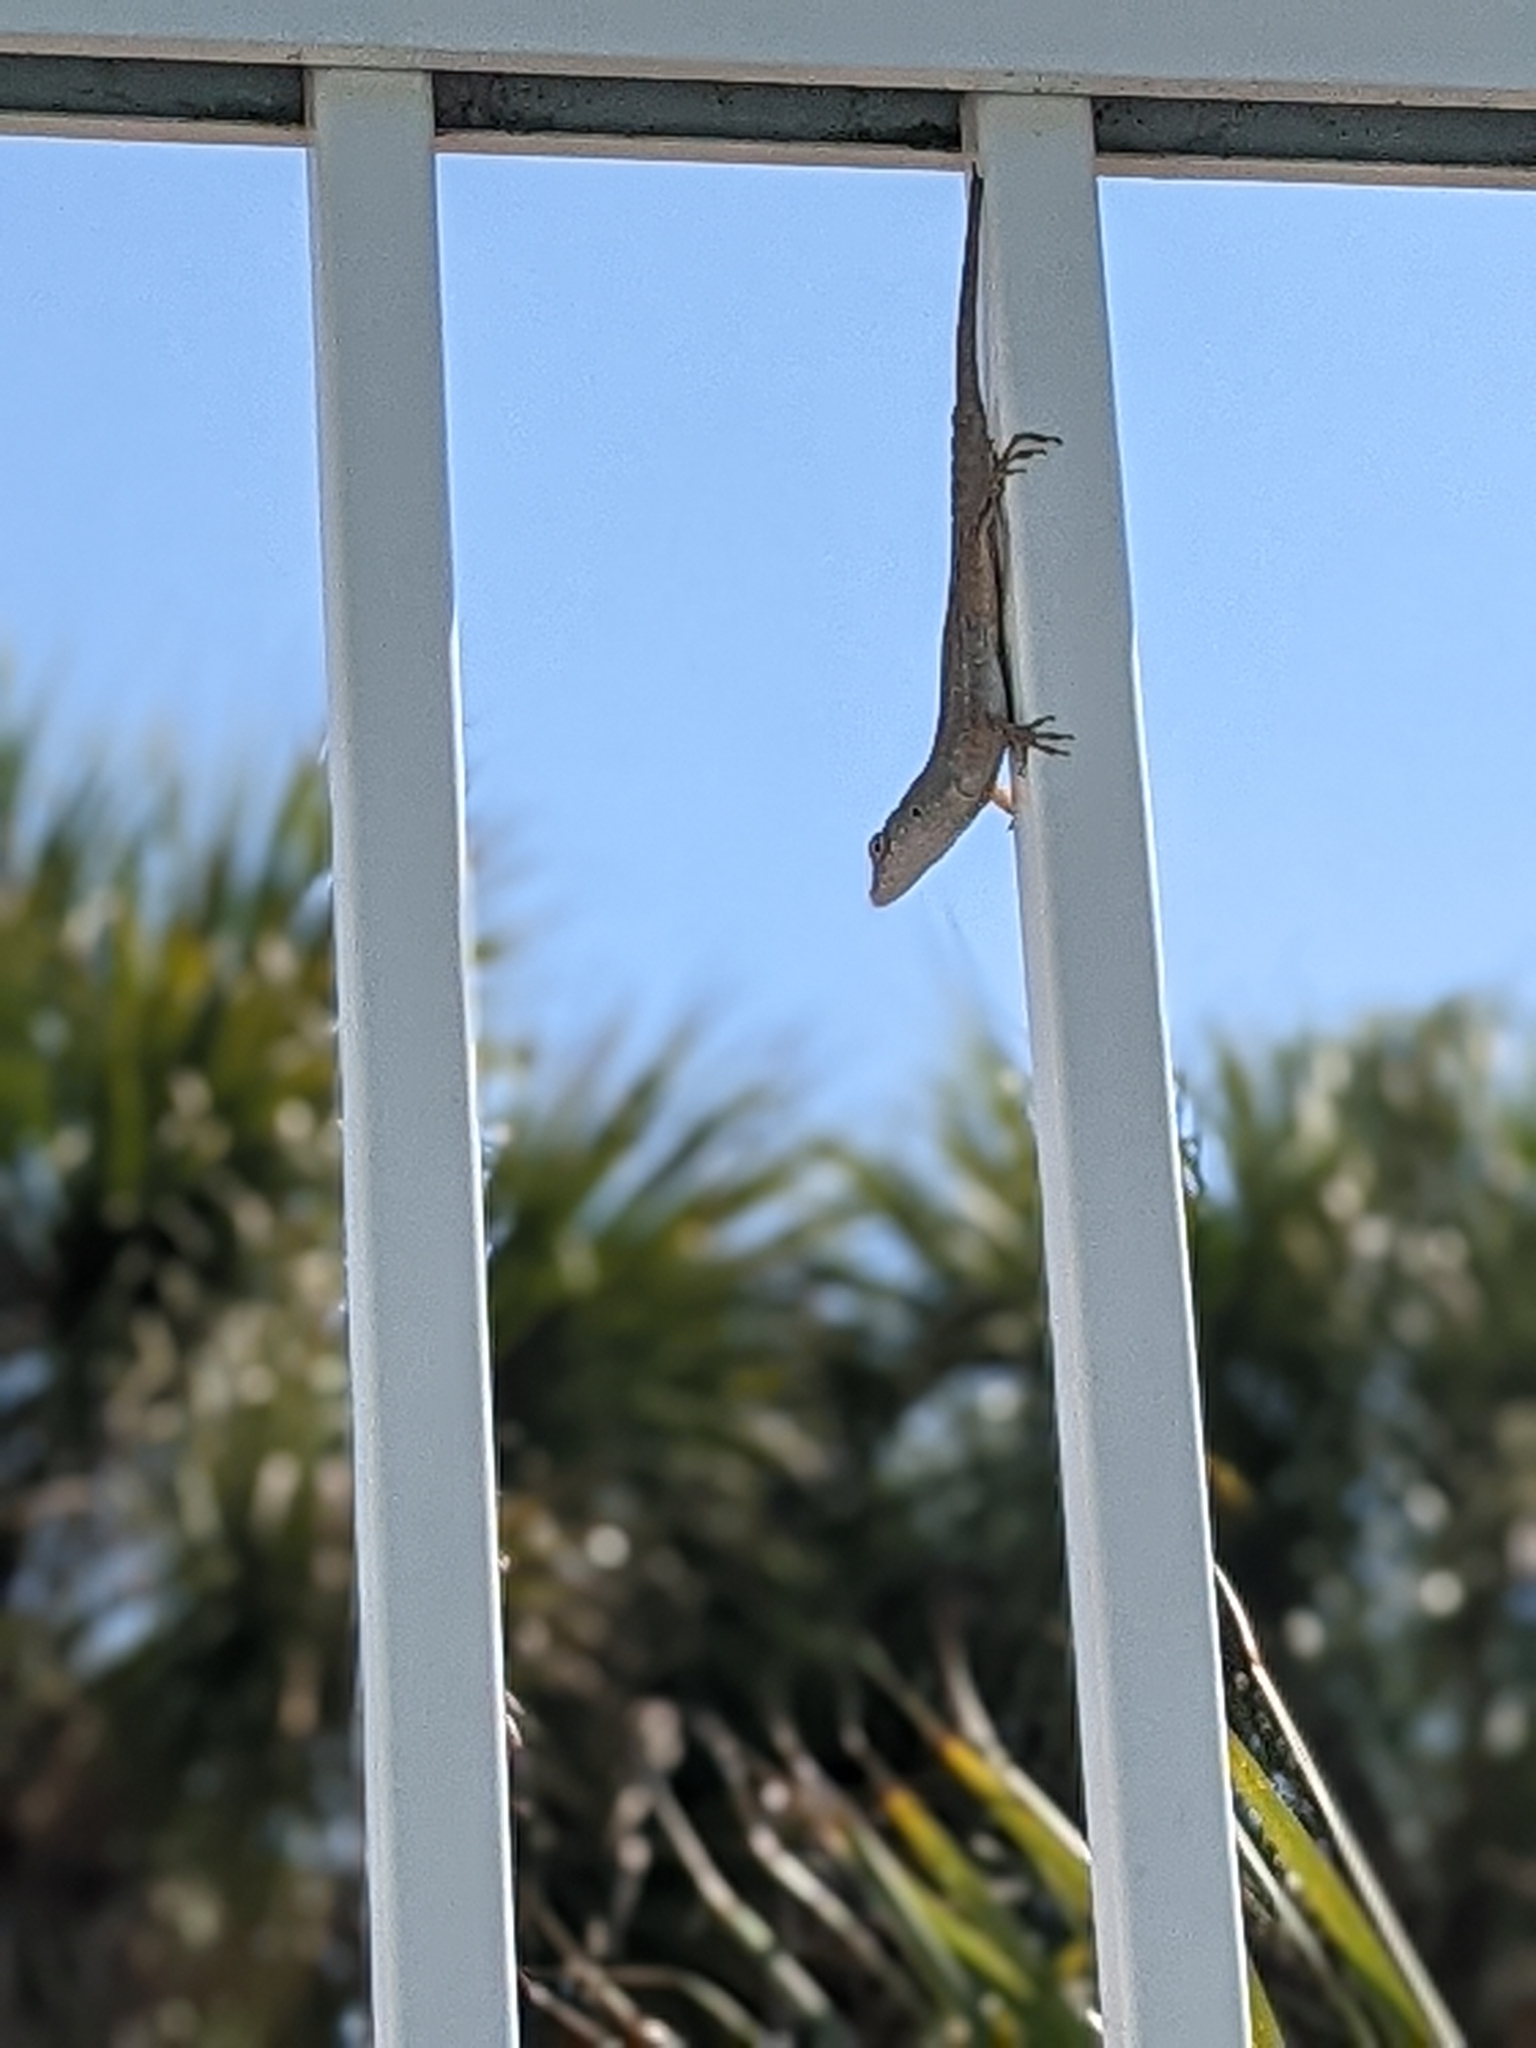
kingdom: Animalia
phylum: Chordata
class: Squamata
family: Dactyloidae
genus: Anolis
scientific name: Anolis sagrei
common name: Brown anole
